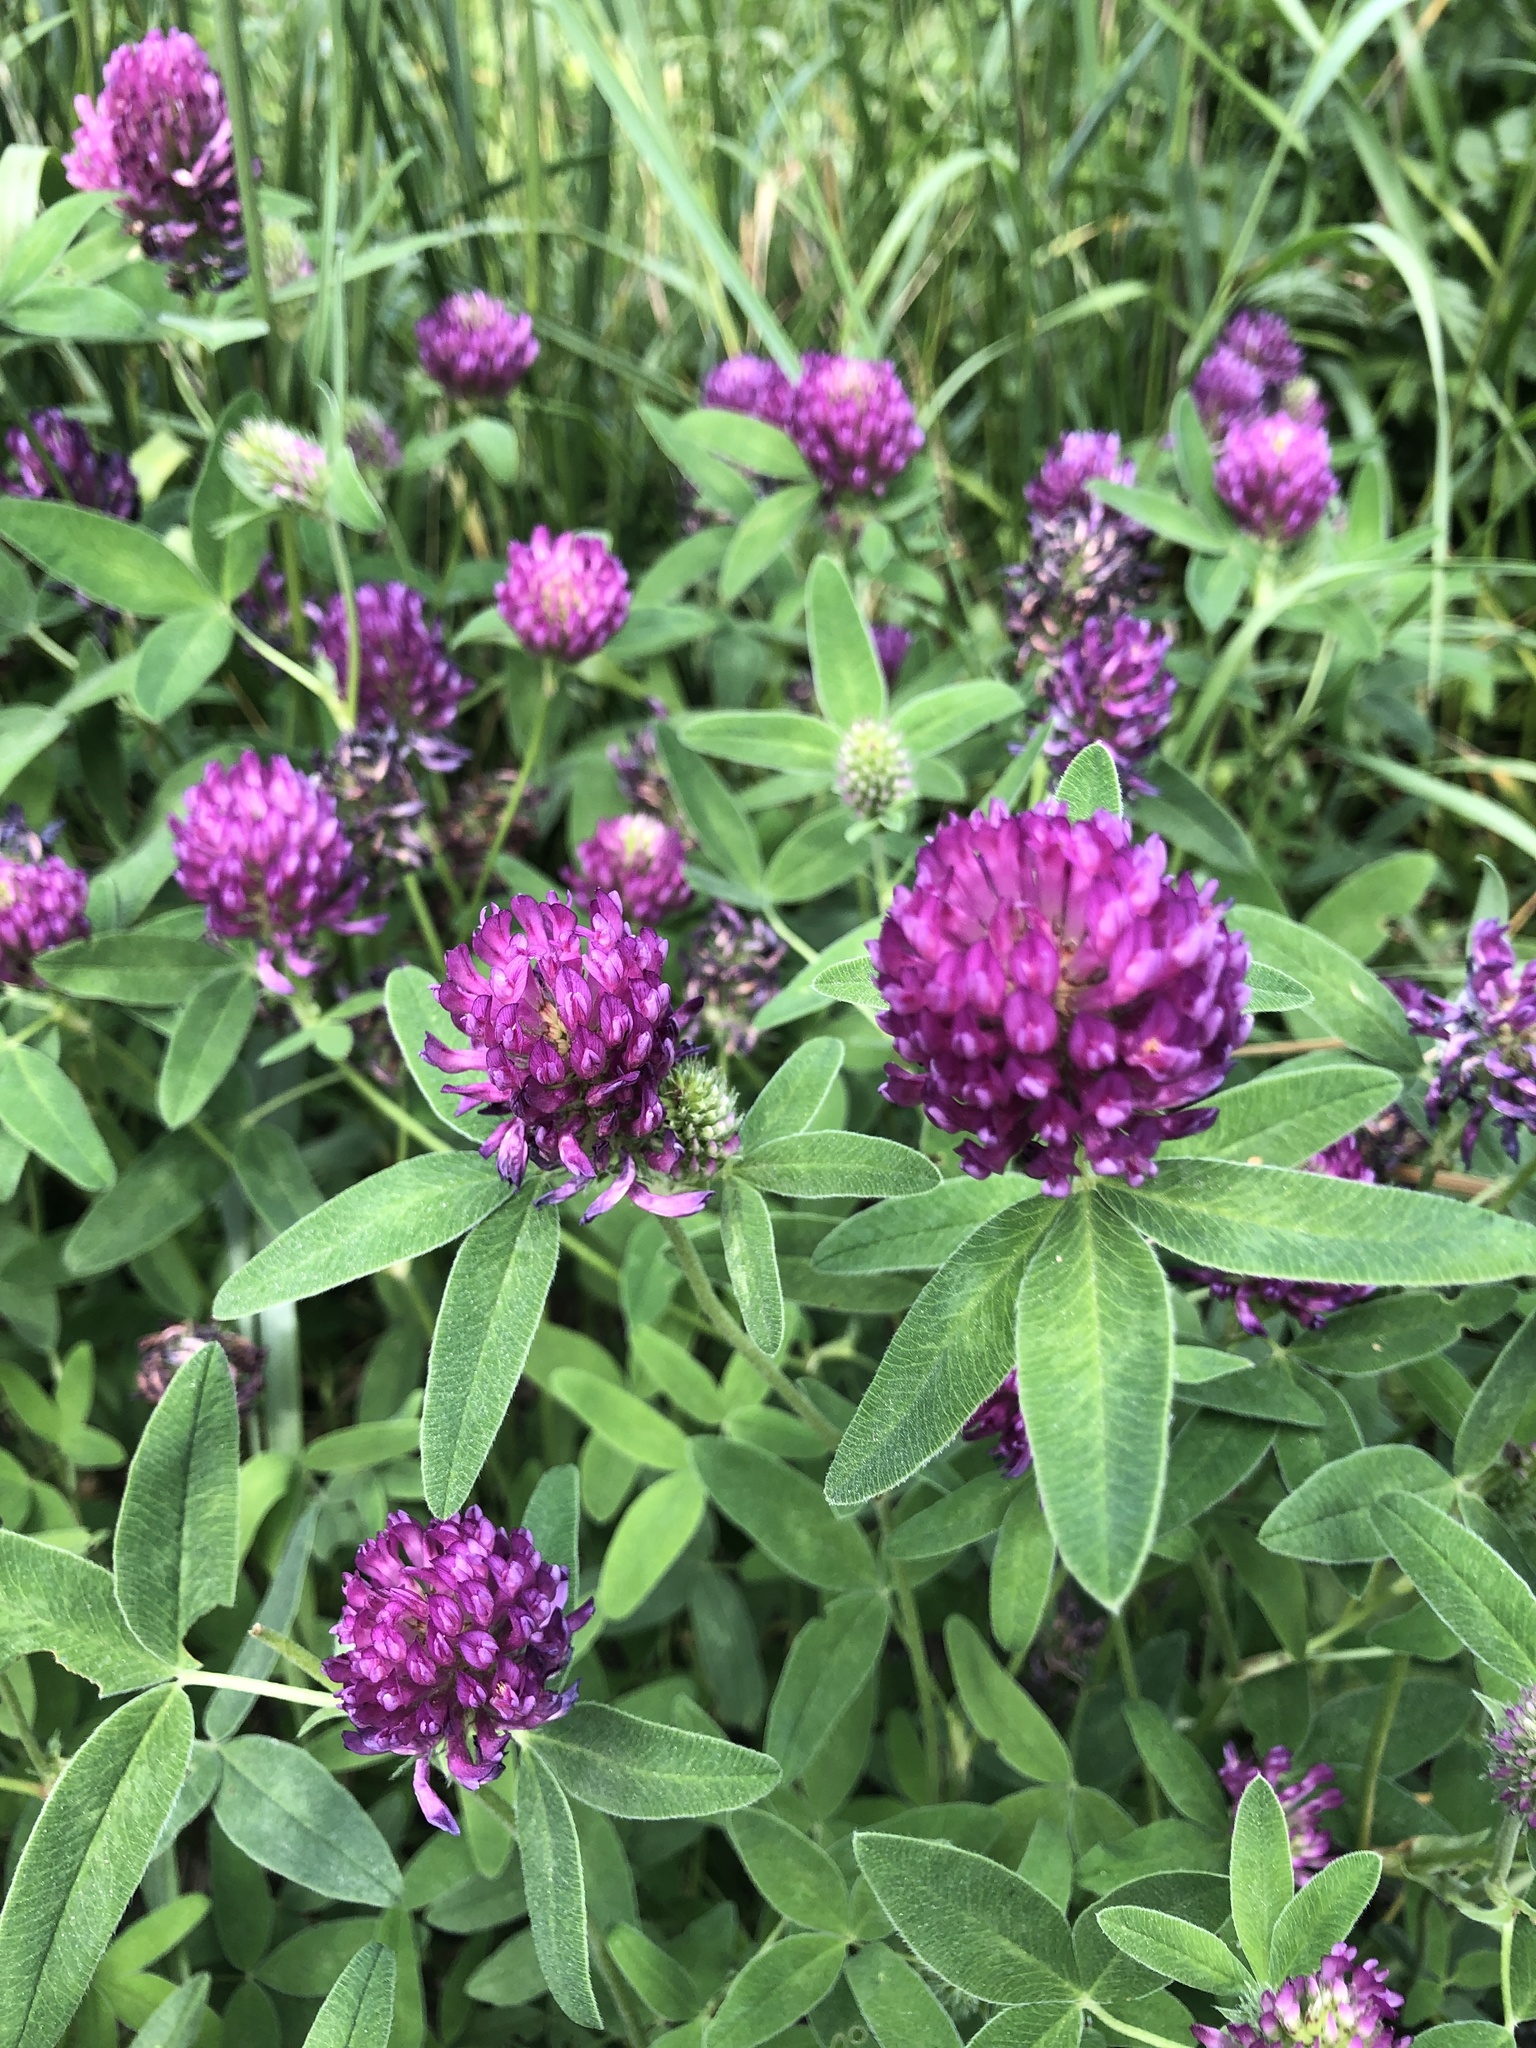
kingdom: Plantae
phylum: Tracheophyta
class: Magnoliopsida
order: Fabales
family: Fabaceae
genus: Trifolium
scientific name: Trifolium medium
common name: Zigzag clover
